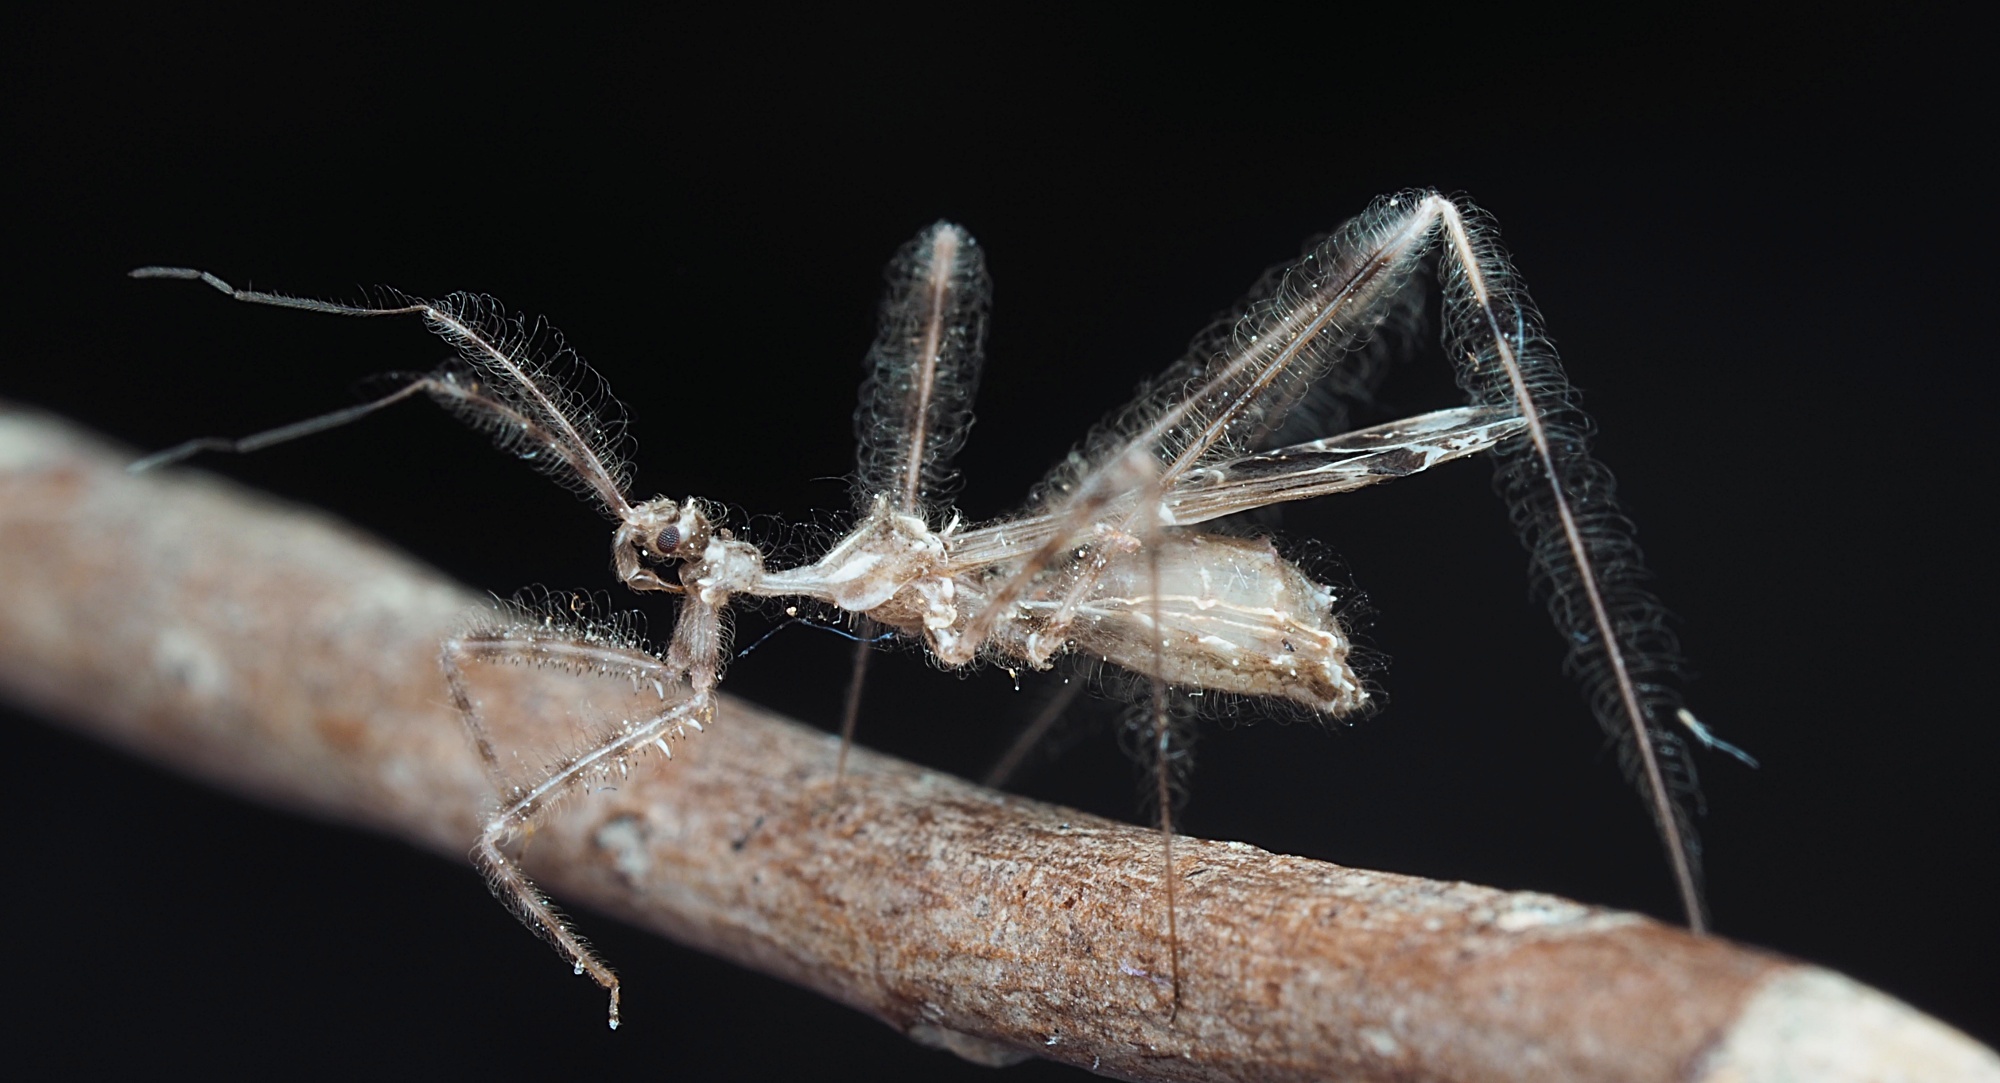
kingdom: Animalia
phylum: Arthropoda
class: Insecta
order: Hemiptera
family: Reduviidae
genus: Stenolemus
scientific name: Stenolemus fraterculus
